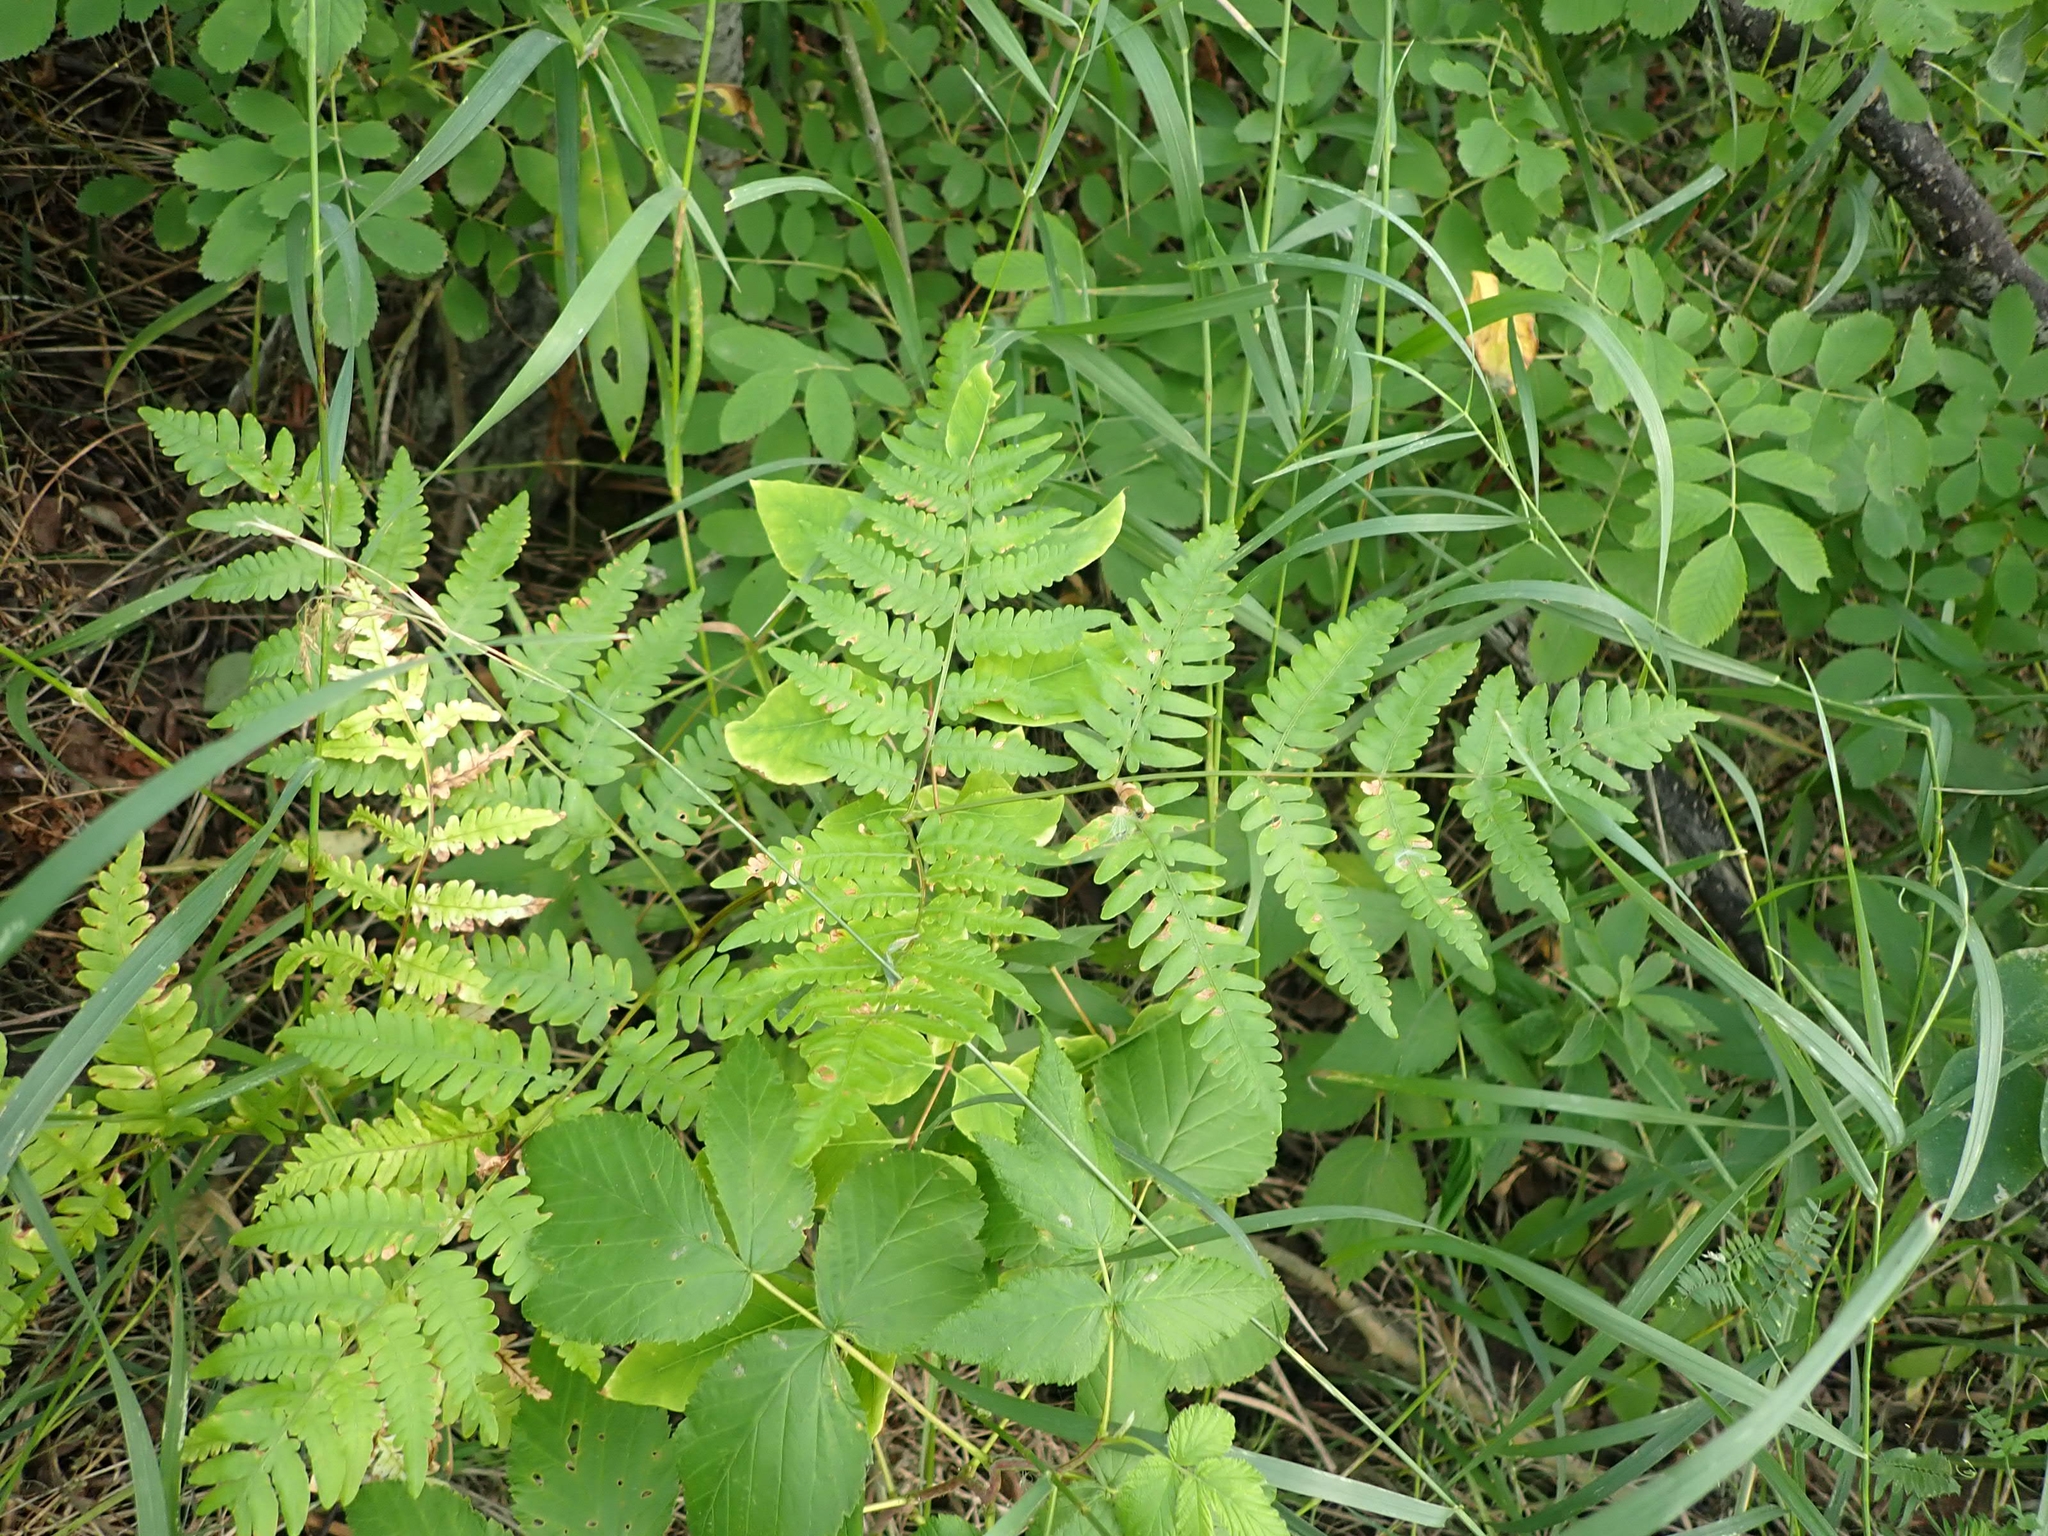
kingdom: Plantae
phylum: Tracheophyta
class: Polypodiopsida
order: Polypodiales
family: Dennstaedtiaceae
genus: Pteridium
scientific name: Pteridium aquilinum
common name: Bracken
